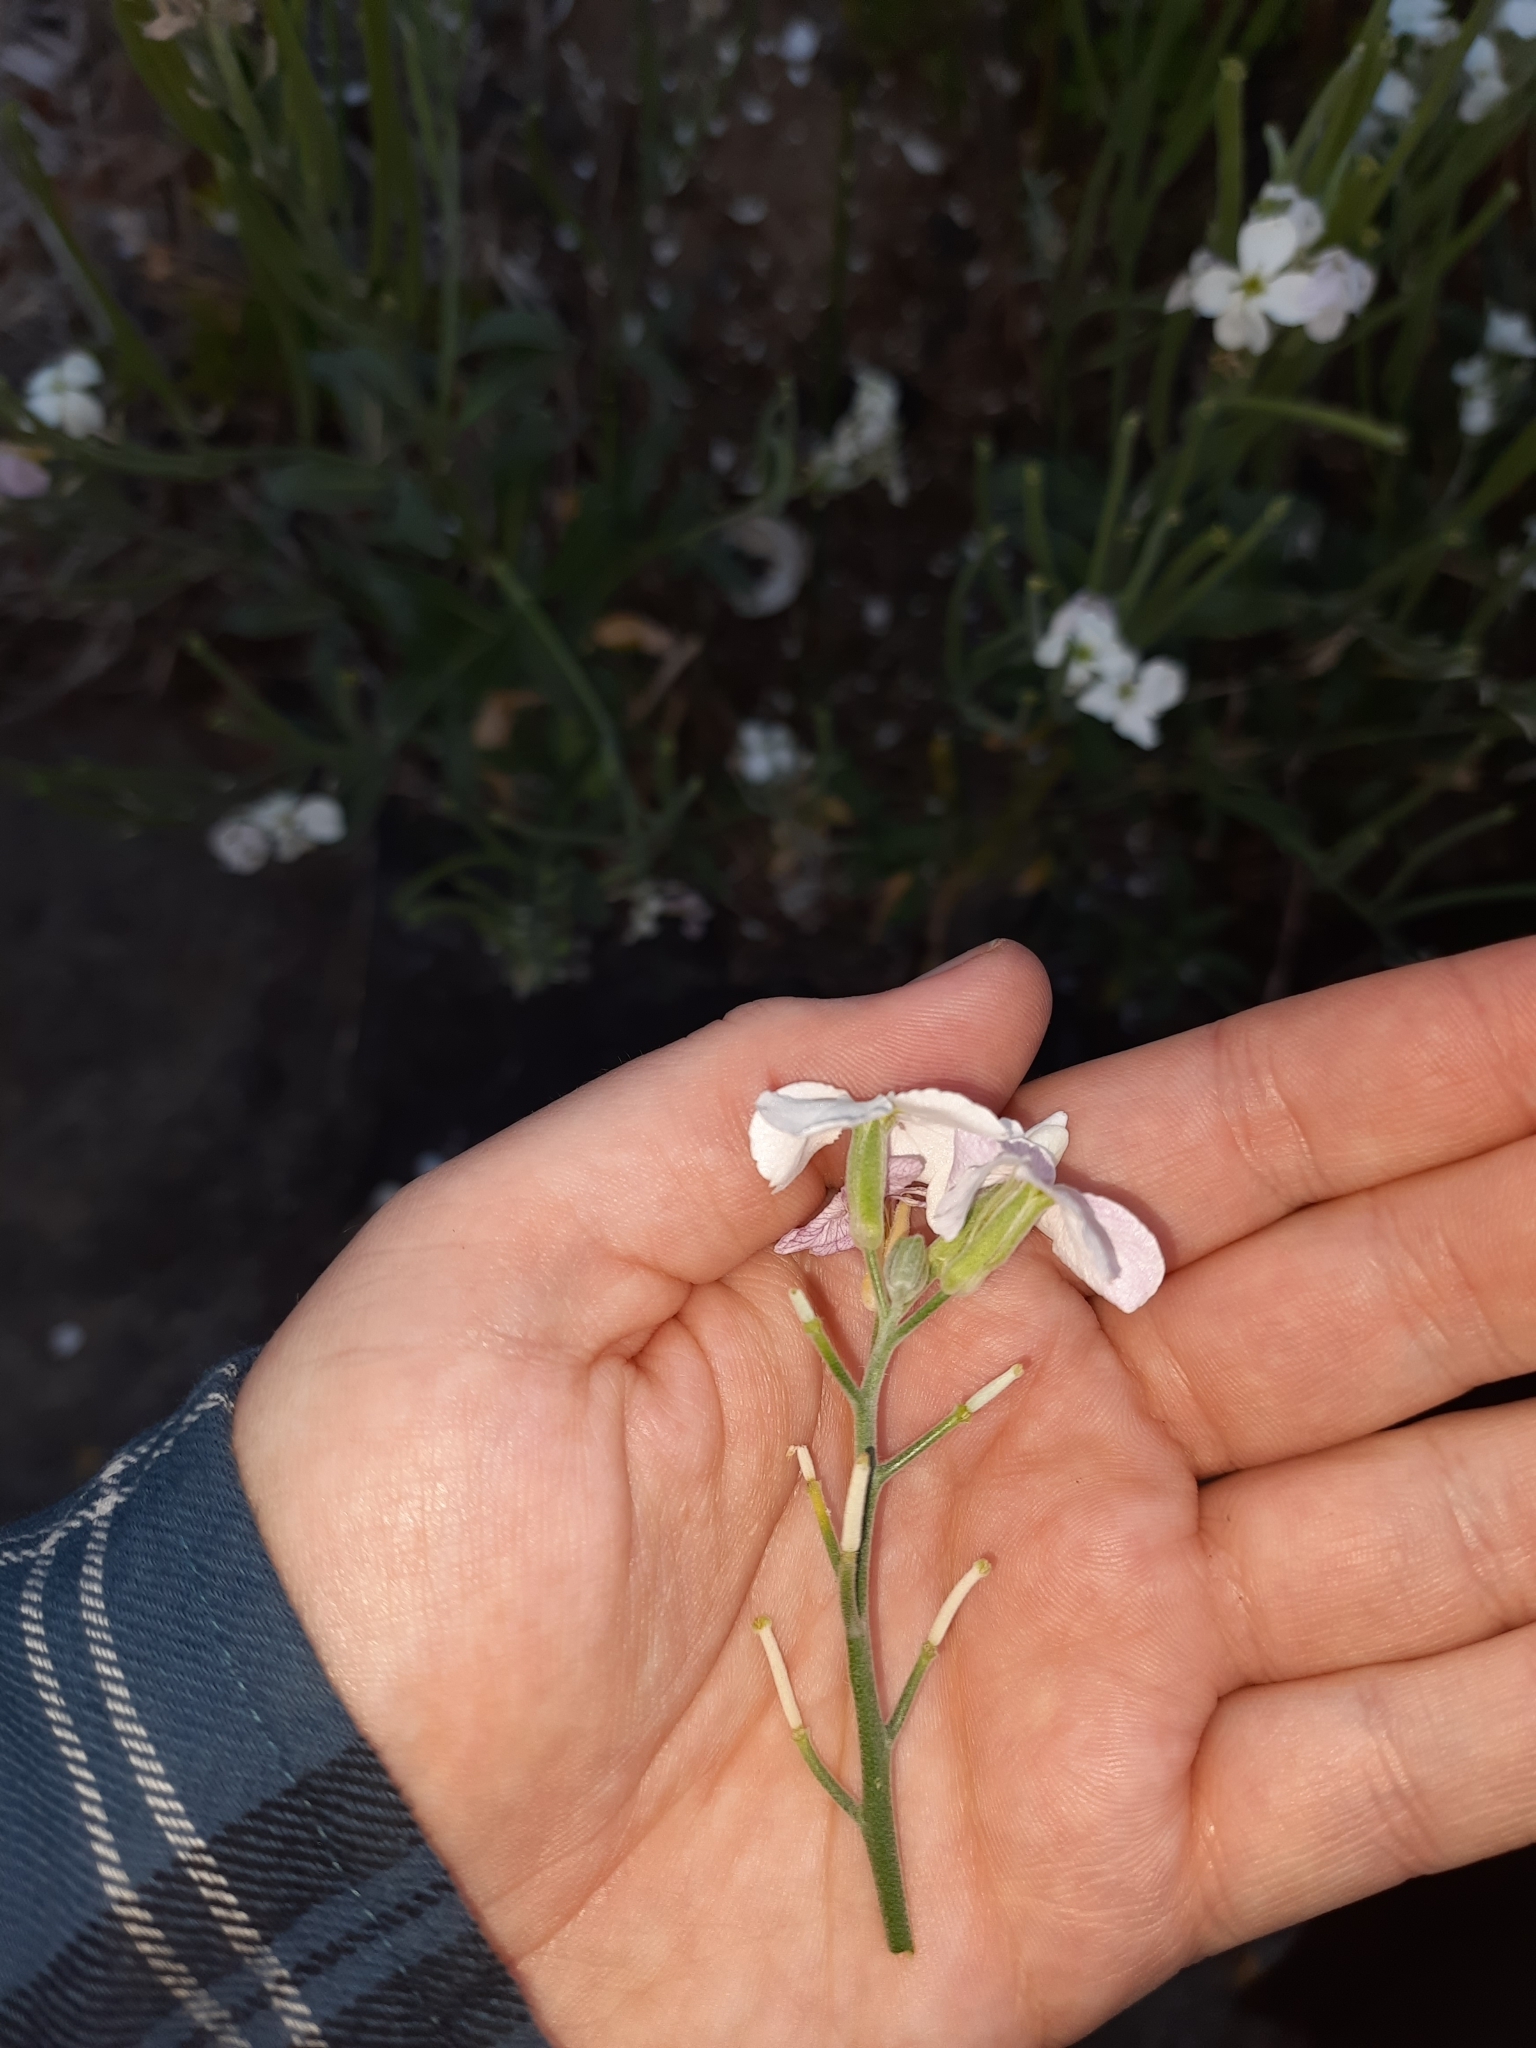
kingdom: Plantae
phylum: Tracheophyta
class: Magnoliopsida
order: Brassicales
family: Brassicaceae
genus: Matthiola
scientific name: Matthiola incana
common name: Hoary stock
